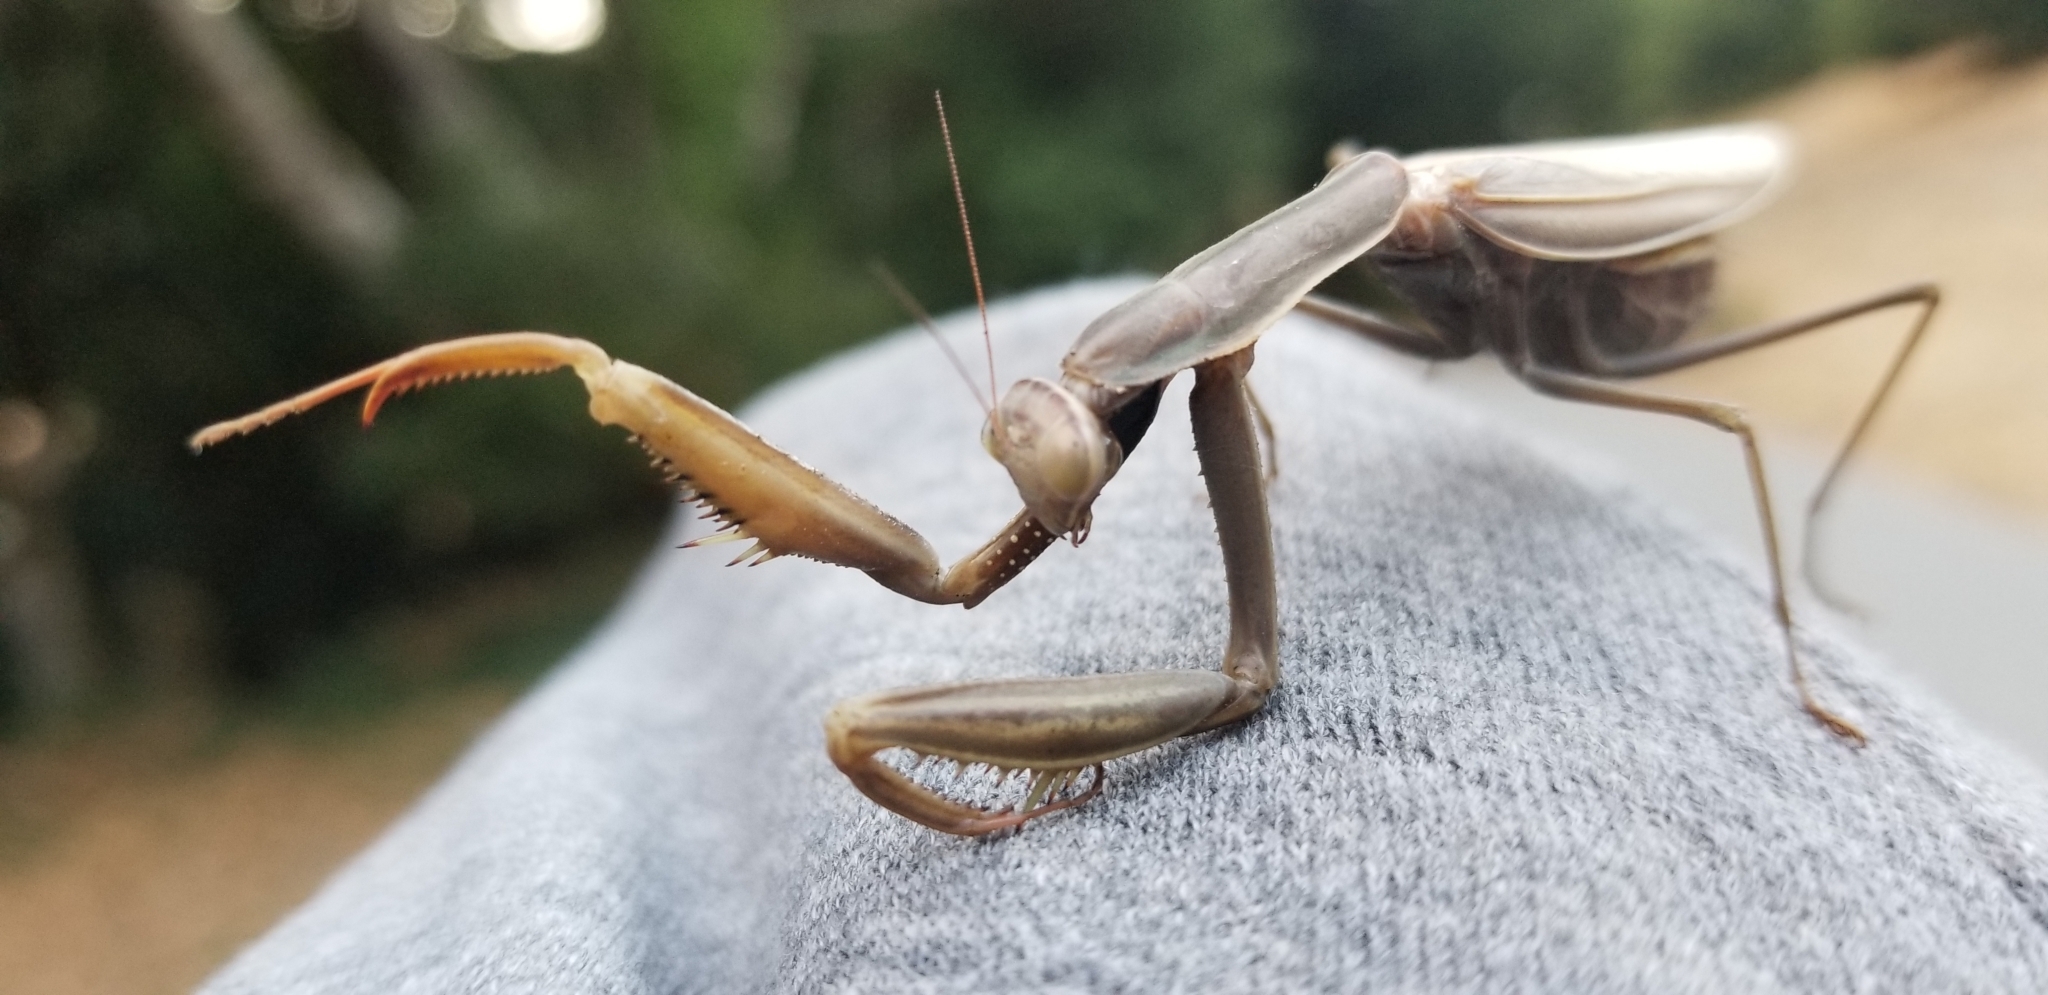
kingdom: Animalia
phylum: Arthropoda
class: Insecta
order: Mantodea
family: Mantidae
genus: Mantis
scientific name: Mantis religiosa
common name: Praying mantis
